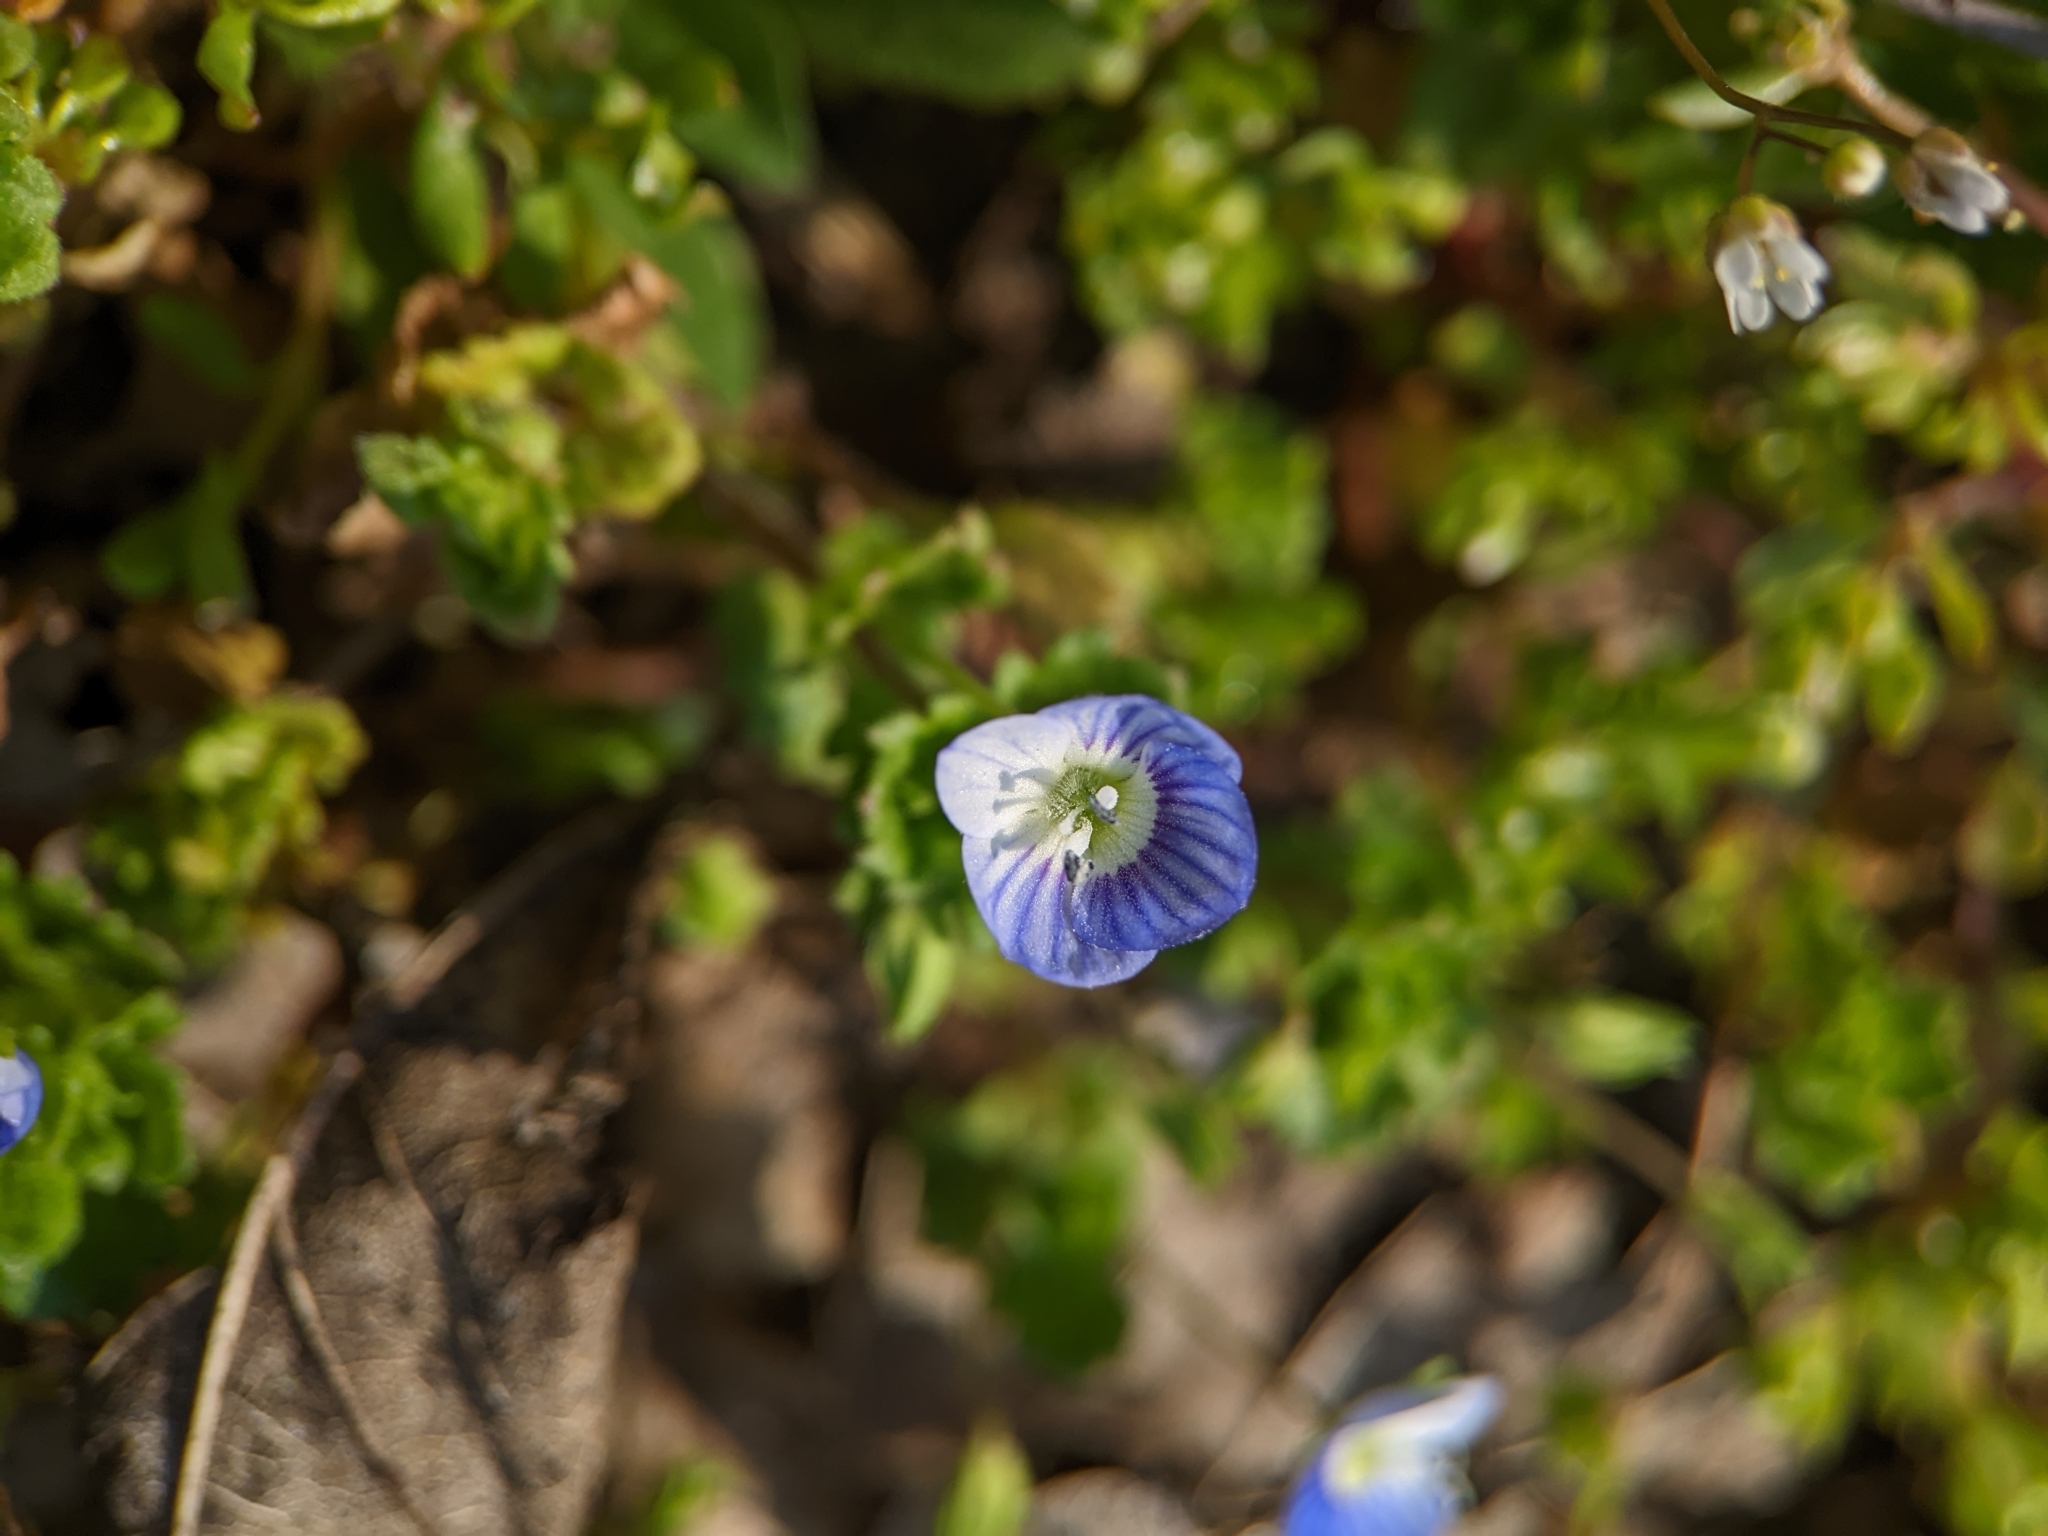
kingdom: Plantae
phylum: Tracheophyta
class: Magnoliopsida
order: Lamiales
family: Plantaginaceae
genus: Veronica
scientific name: Veronica persica
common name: Common field-speedwell
